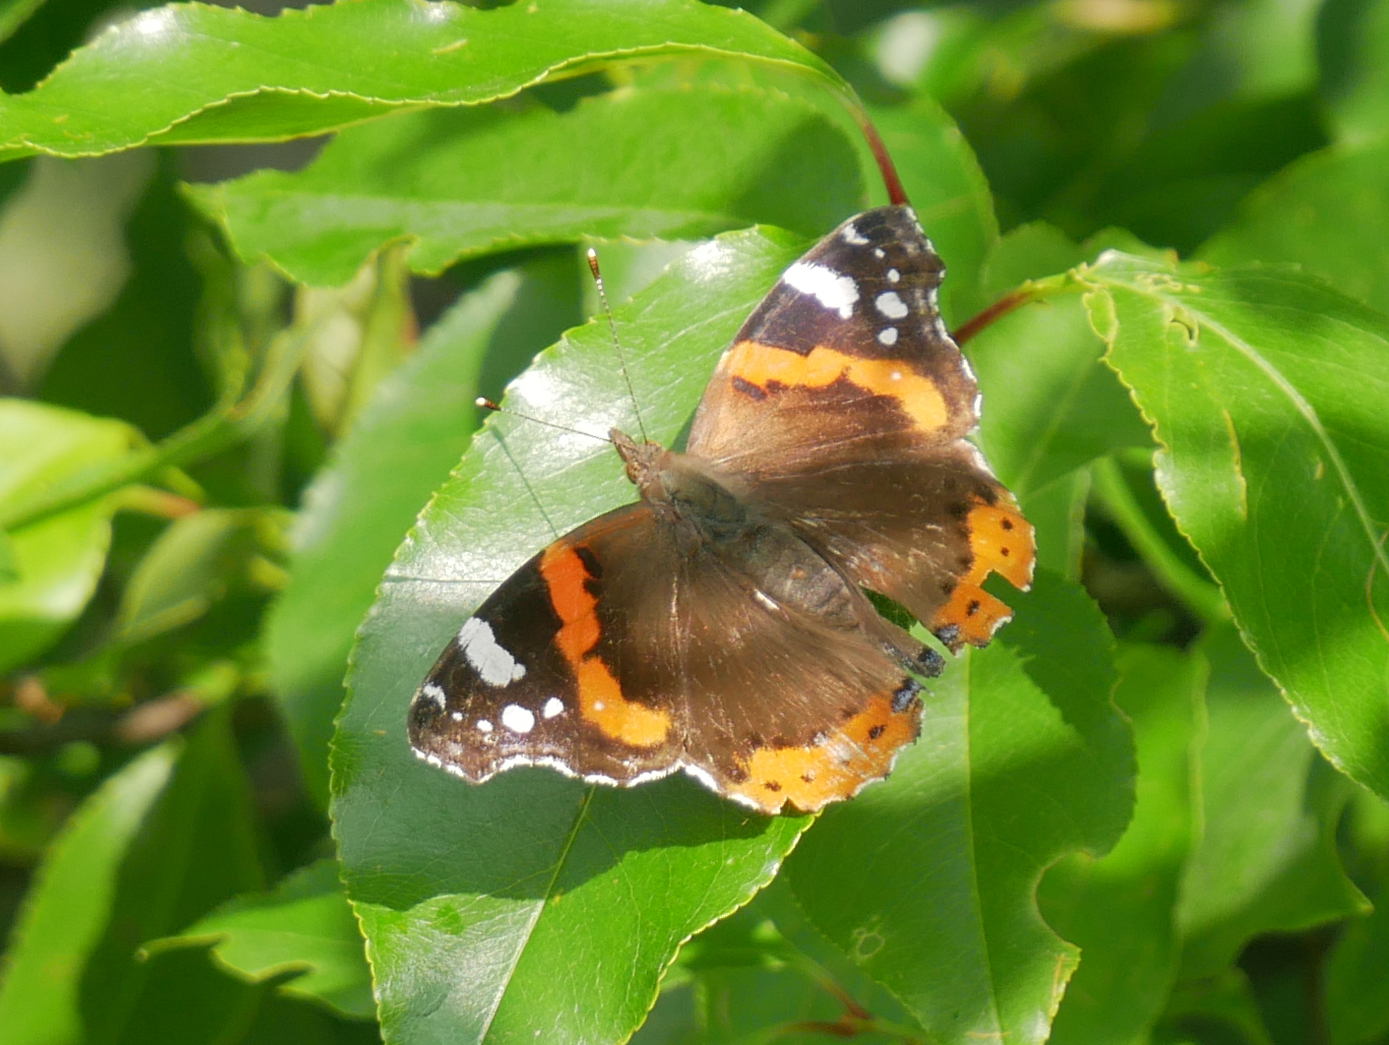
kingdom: Animalia
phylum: Arthropoda
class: Insecta
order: Lepidoptera
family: Nymphalidae
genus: Vanessa
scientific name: Vanessa atalanta
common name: Red admiral
